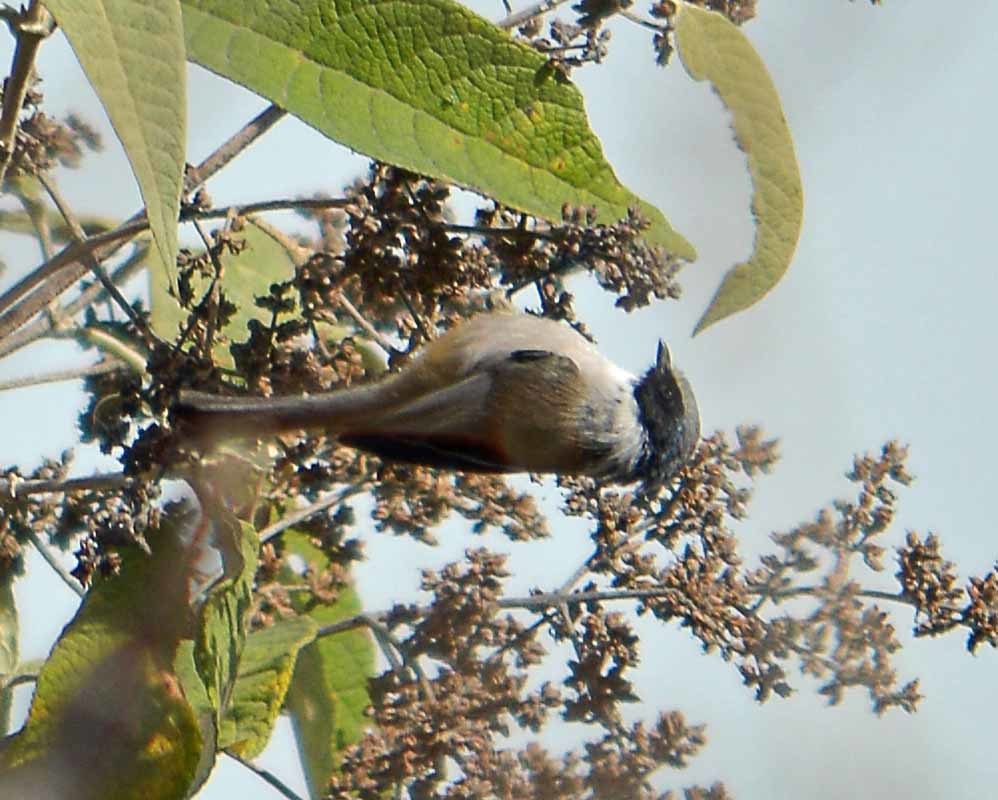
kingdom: Animalia
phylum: Chordata
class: Aves
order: Passeriformes
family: Aegithalidae
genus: Psaltriparus
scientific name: Psaltriparus minimus
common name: American bushtit
